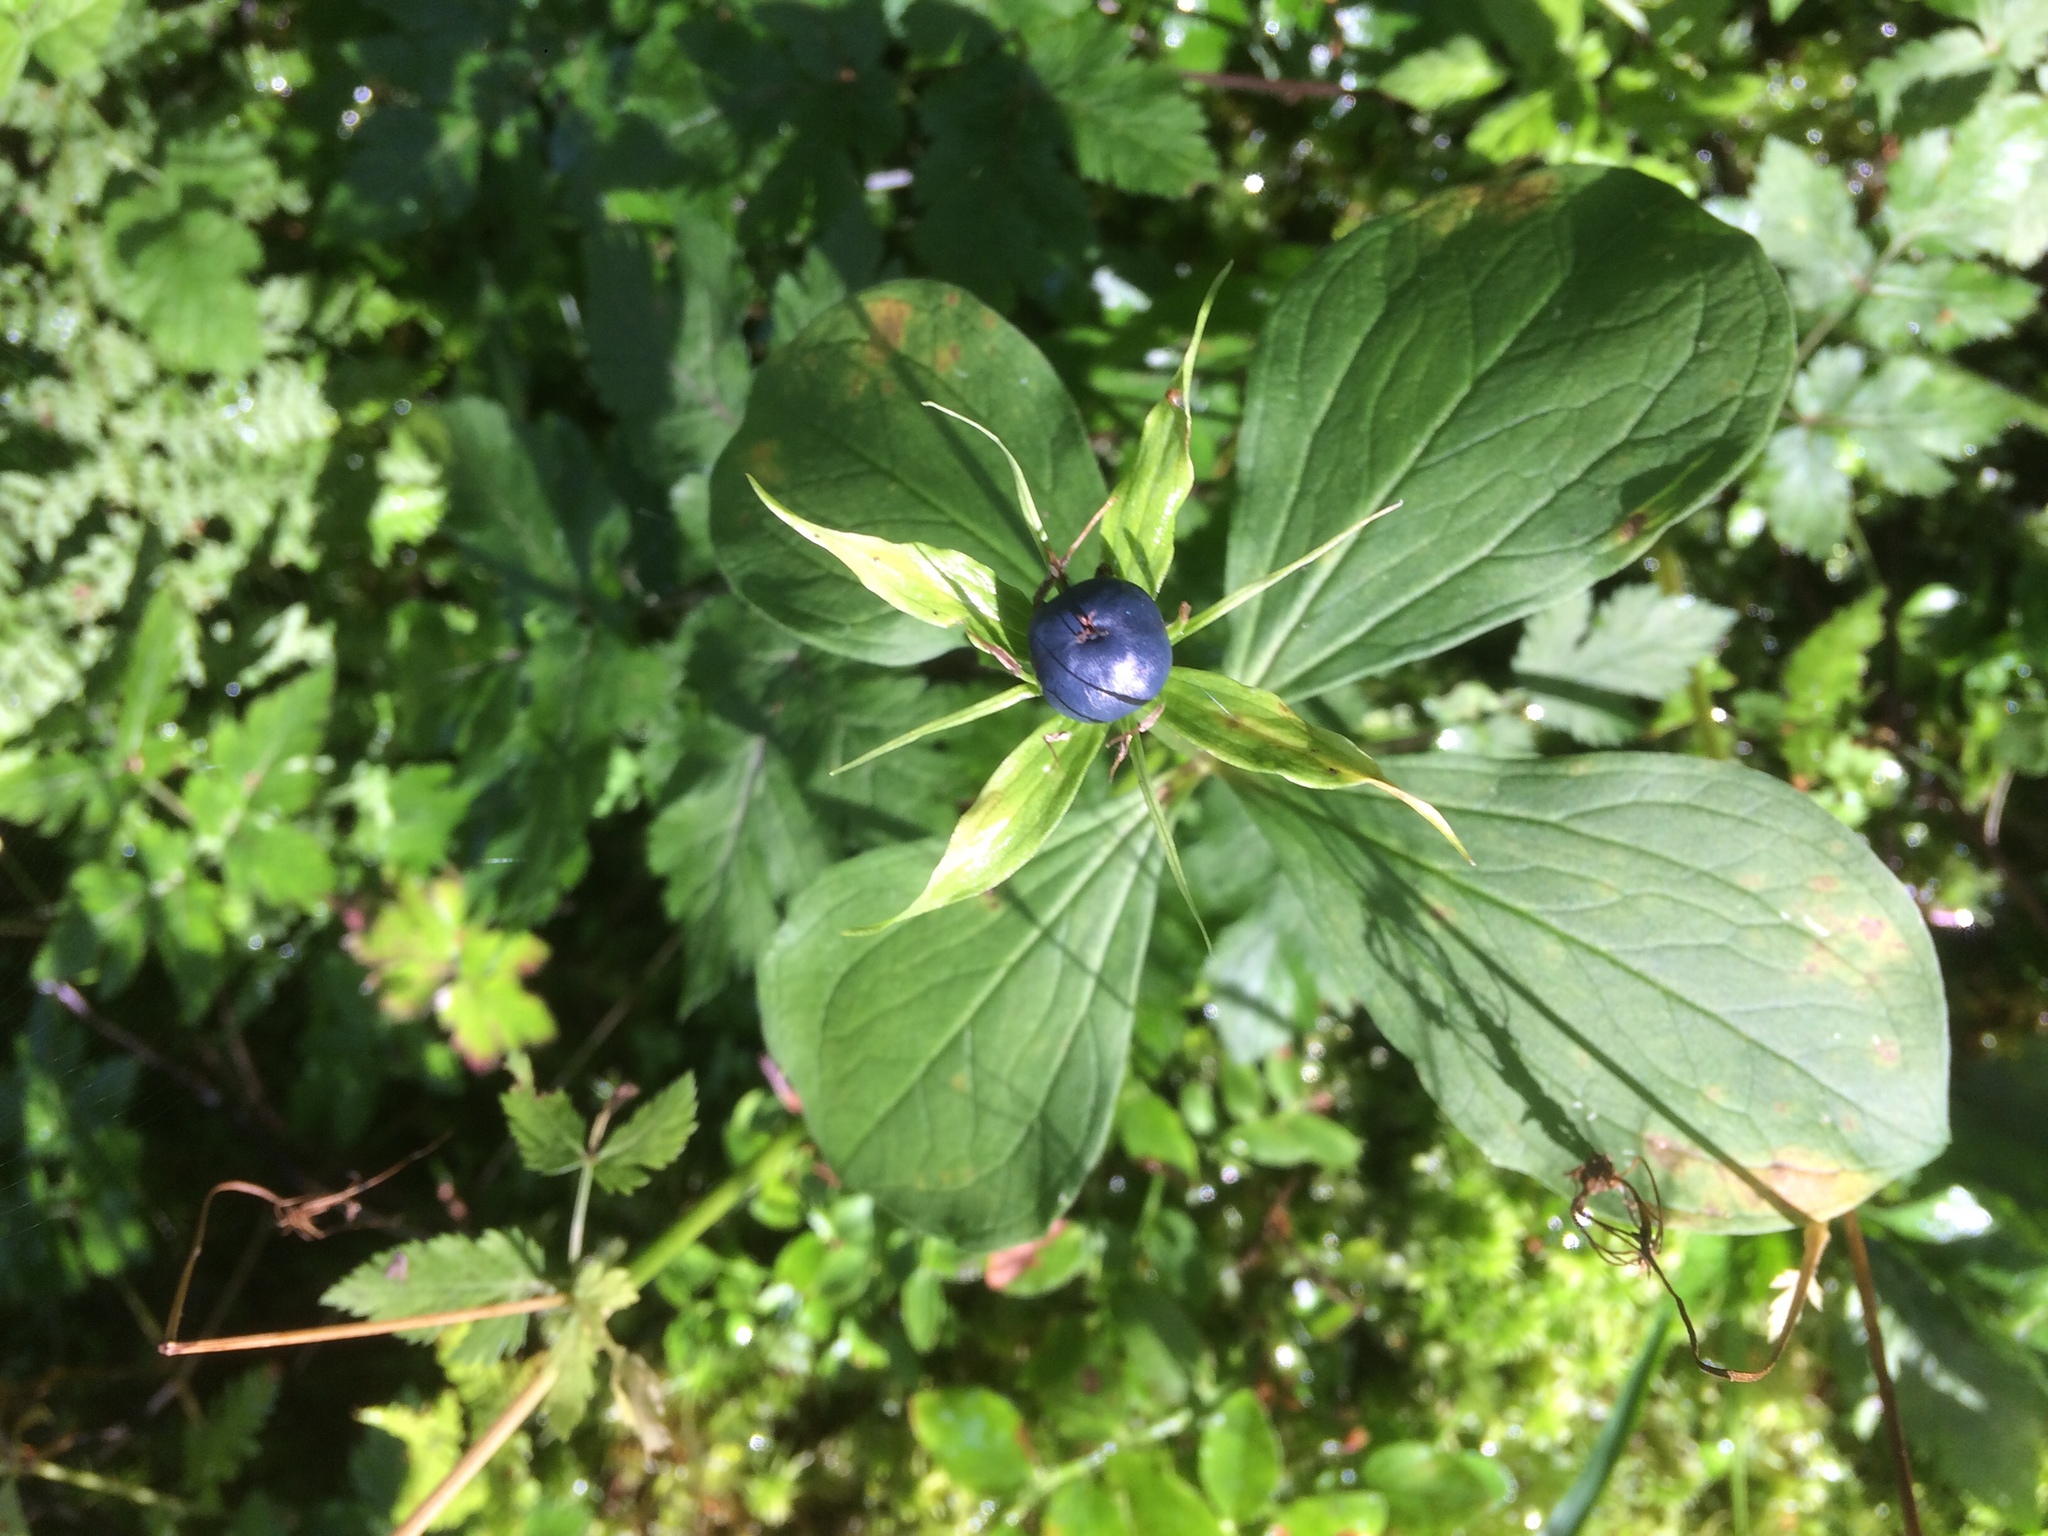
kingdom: Plantae
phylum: Tracheophyta
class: Liliopsida
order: Liliales
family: Melanthiaceae
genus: Paris
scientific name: Paris quadrifolia
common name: Herb-paris
